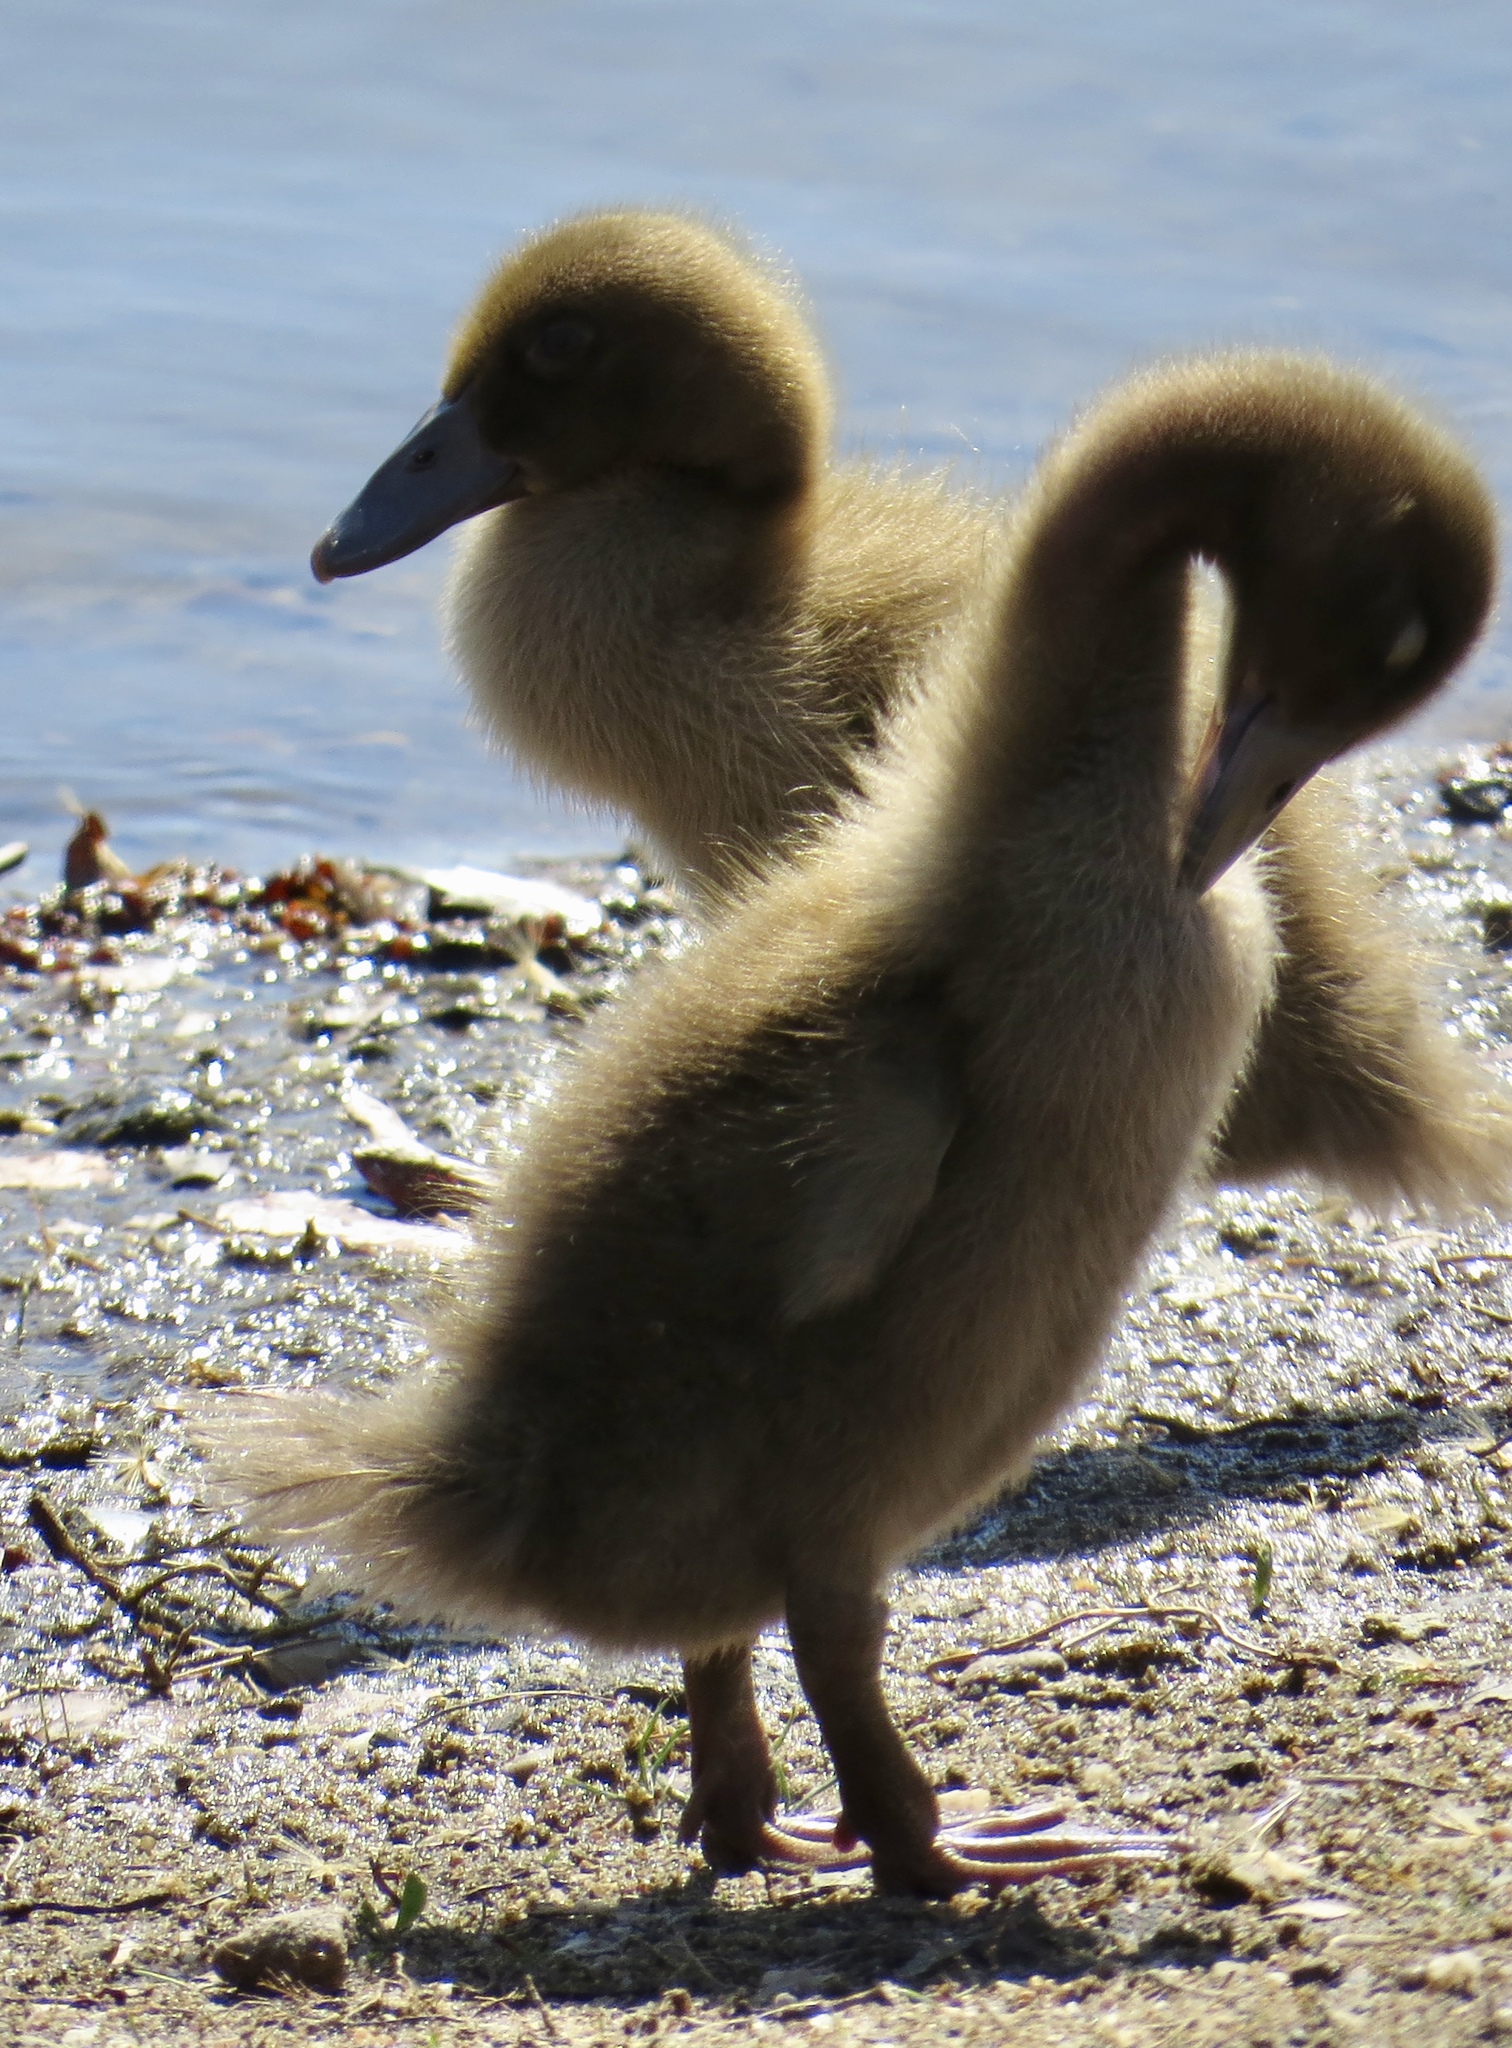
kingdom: Animalia
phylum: Chordata
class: Aves
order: Anseriformes
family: Anatidae
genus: Branta
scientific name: Branta canadensis
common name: Canada goose
